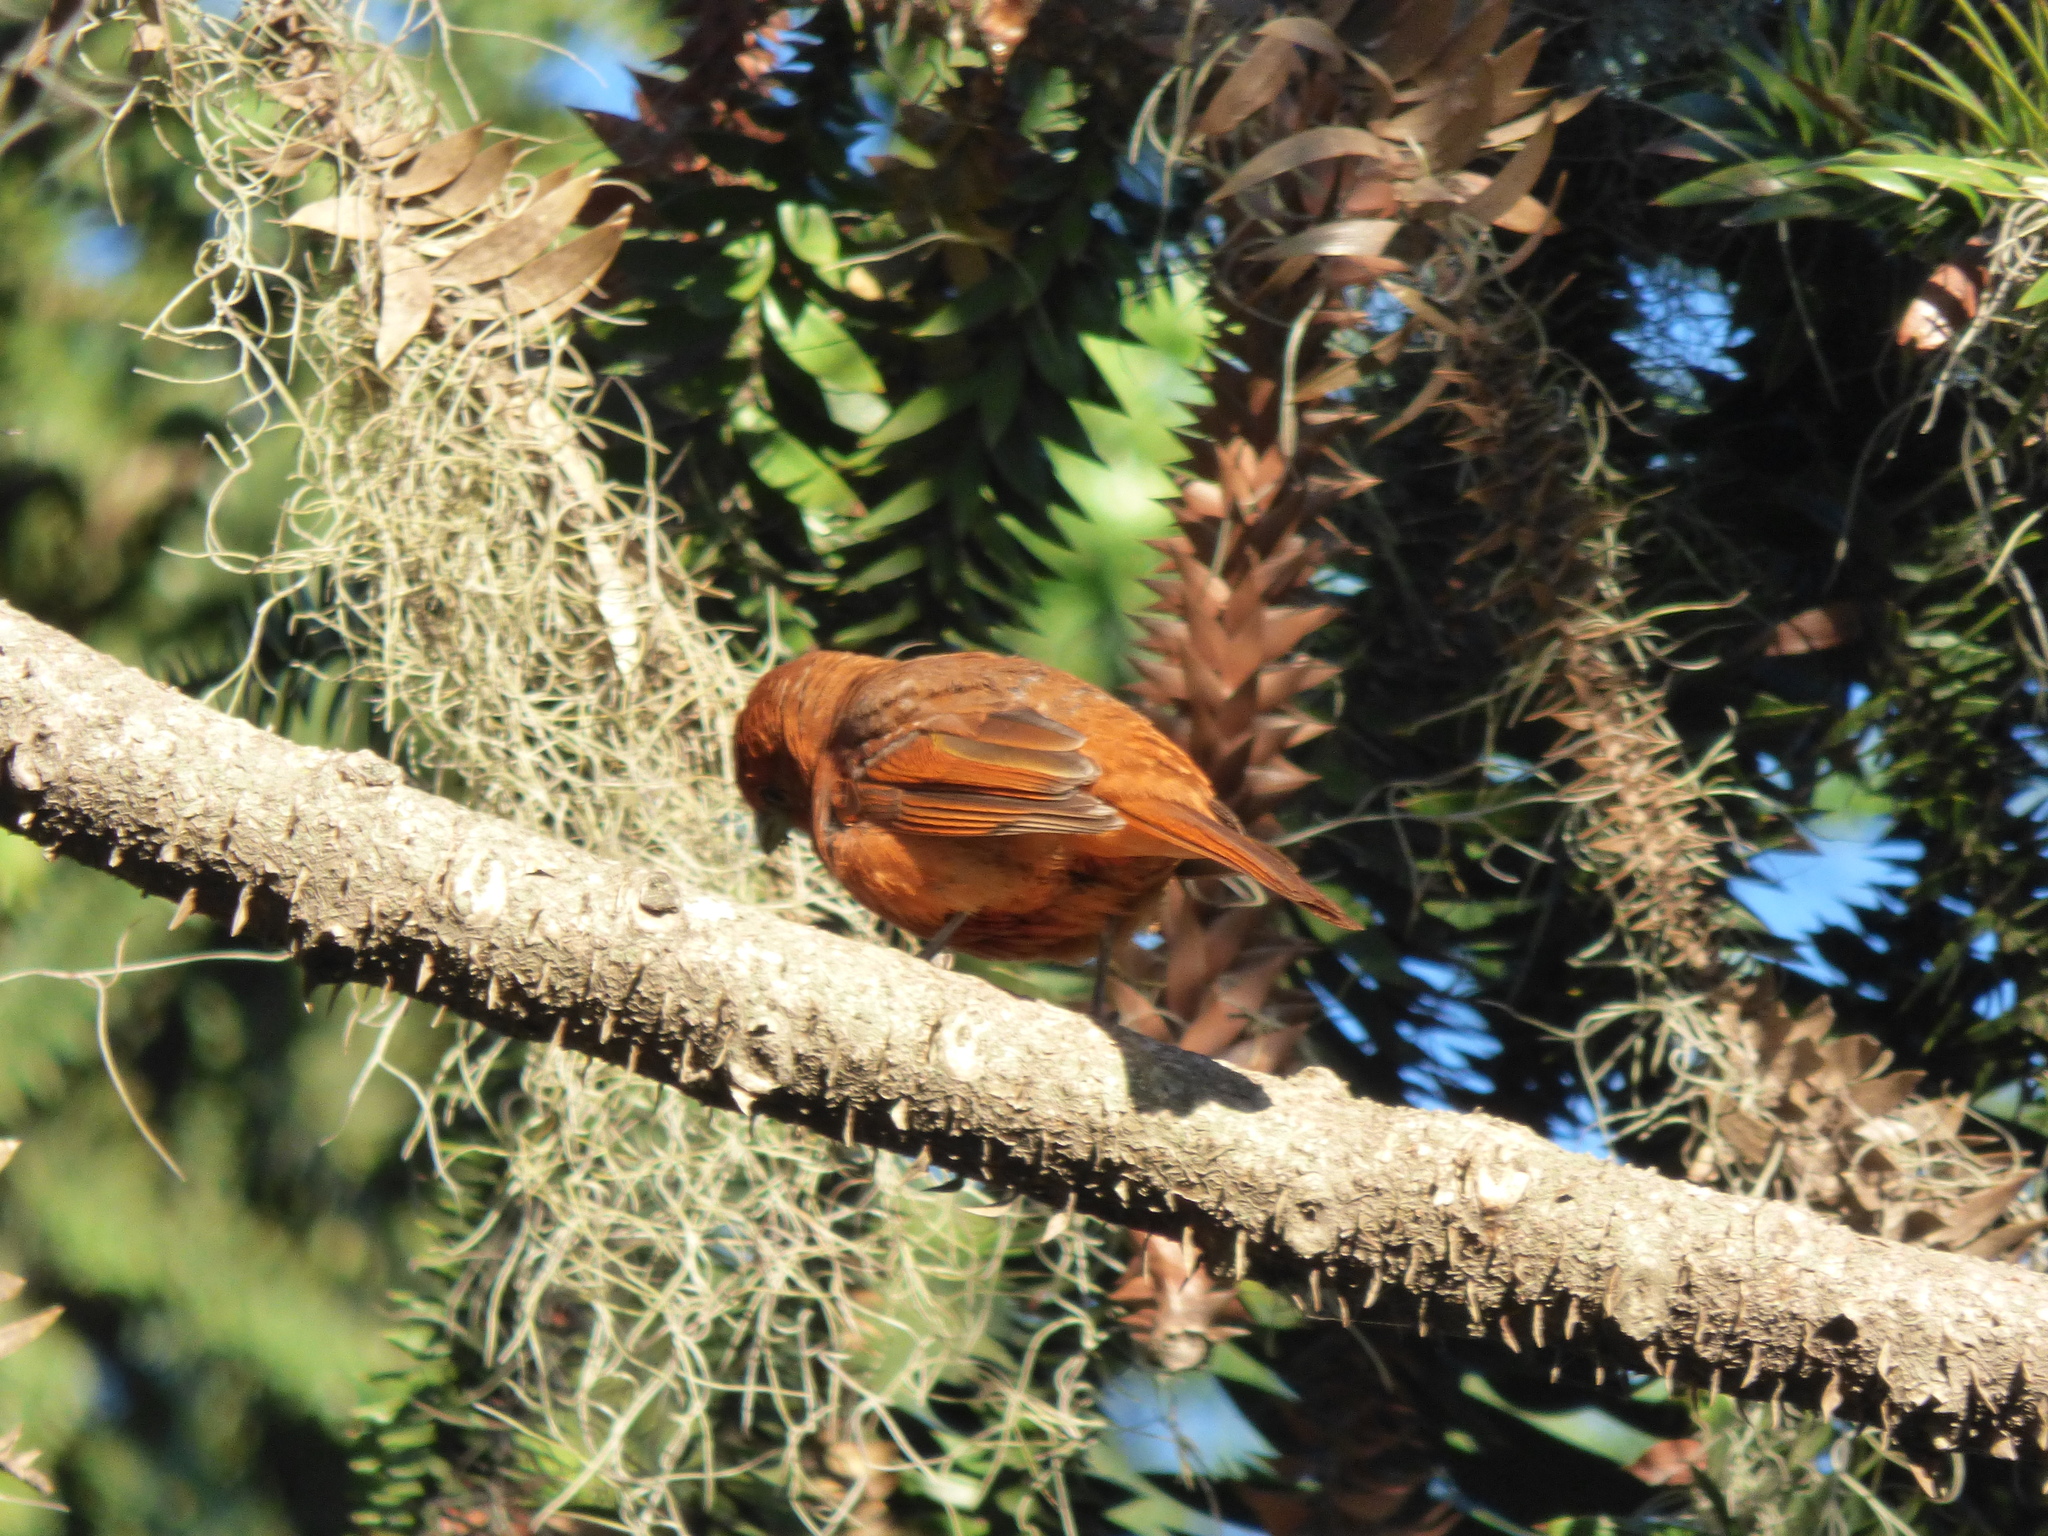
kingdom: Animalia
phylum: Chordata
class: Aves
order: Passeriformes
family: Cardinalidae
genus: Piranga
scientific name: Piranga flava
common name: Red tanager
